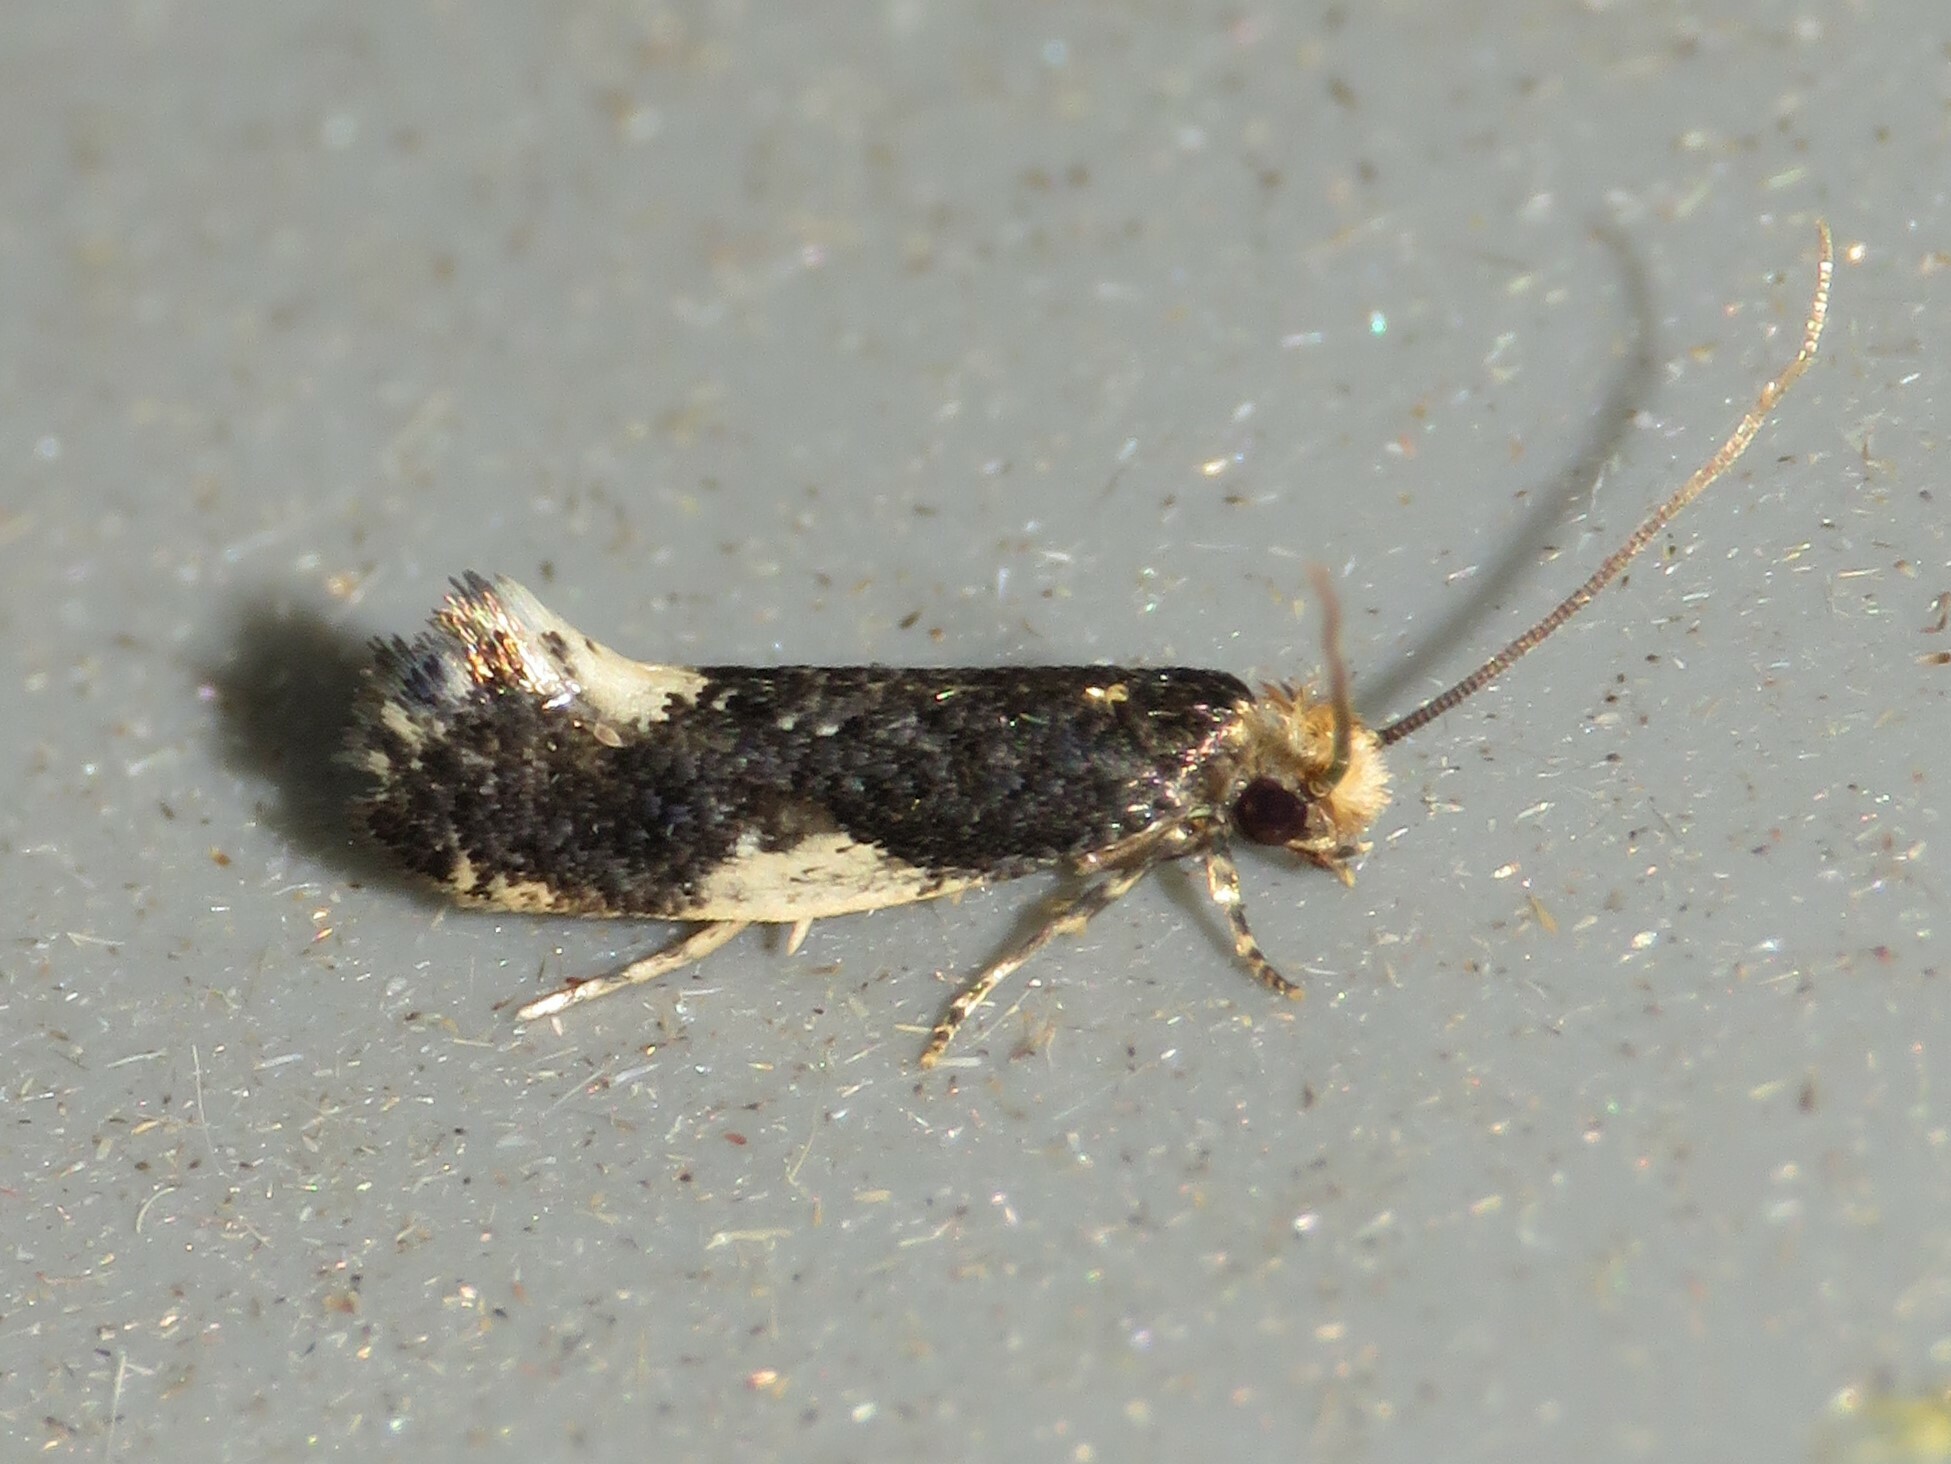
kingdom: Animalia
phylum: Arthropoda
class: Insecta
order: Lepidoptera
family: Tineidae
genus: Monopis
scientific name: Monopis spilotella
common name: Orange-headed monopis
